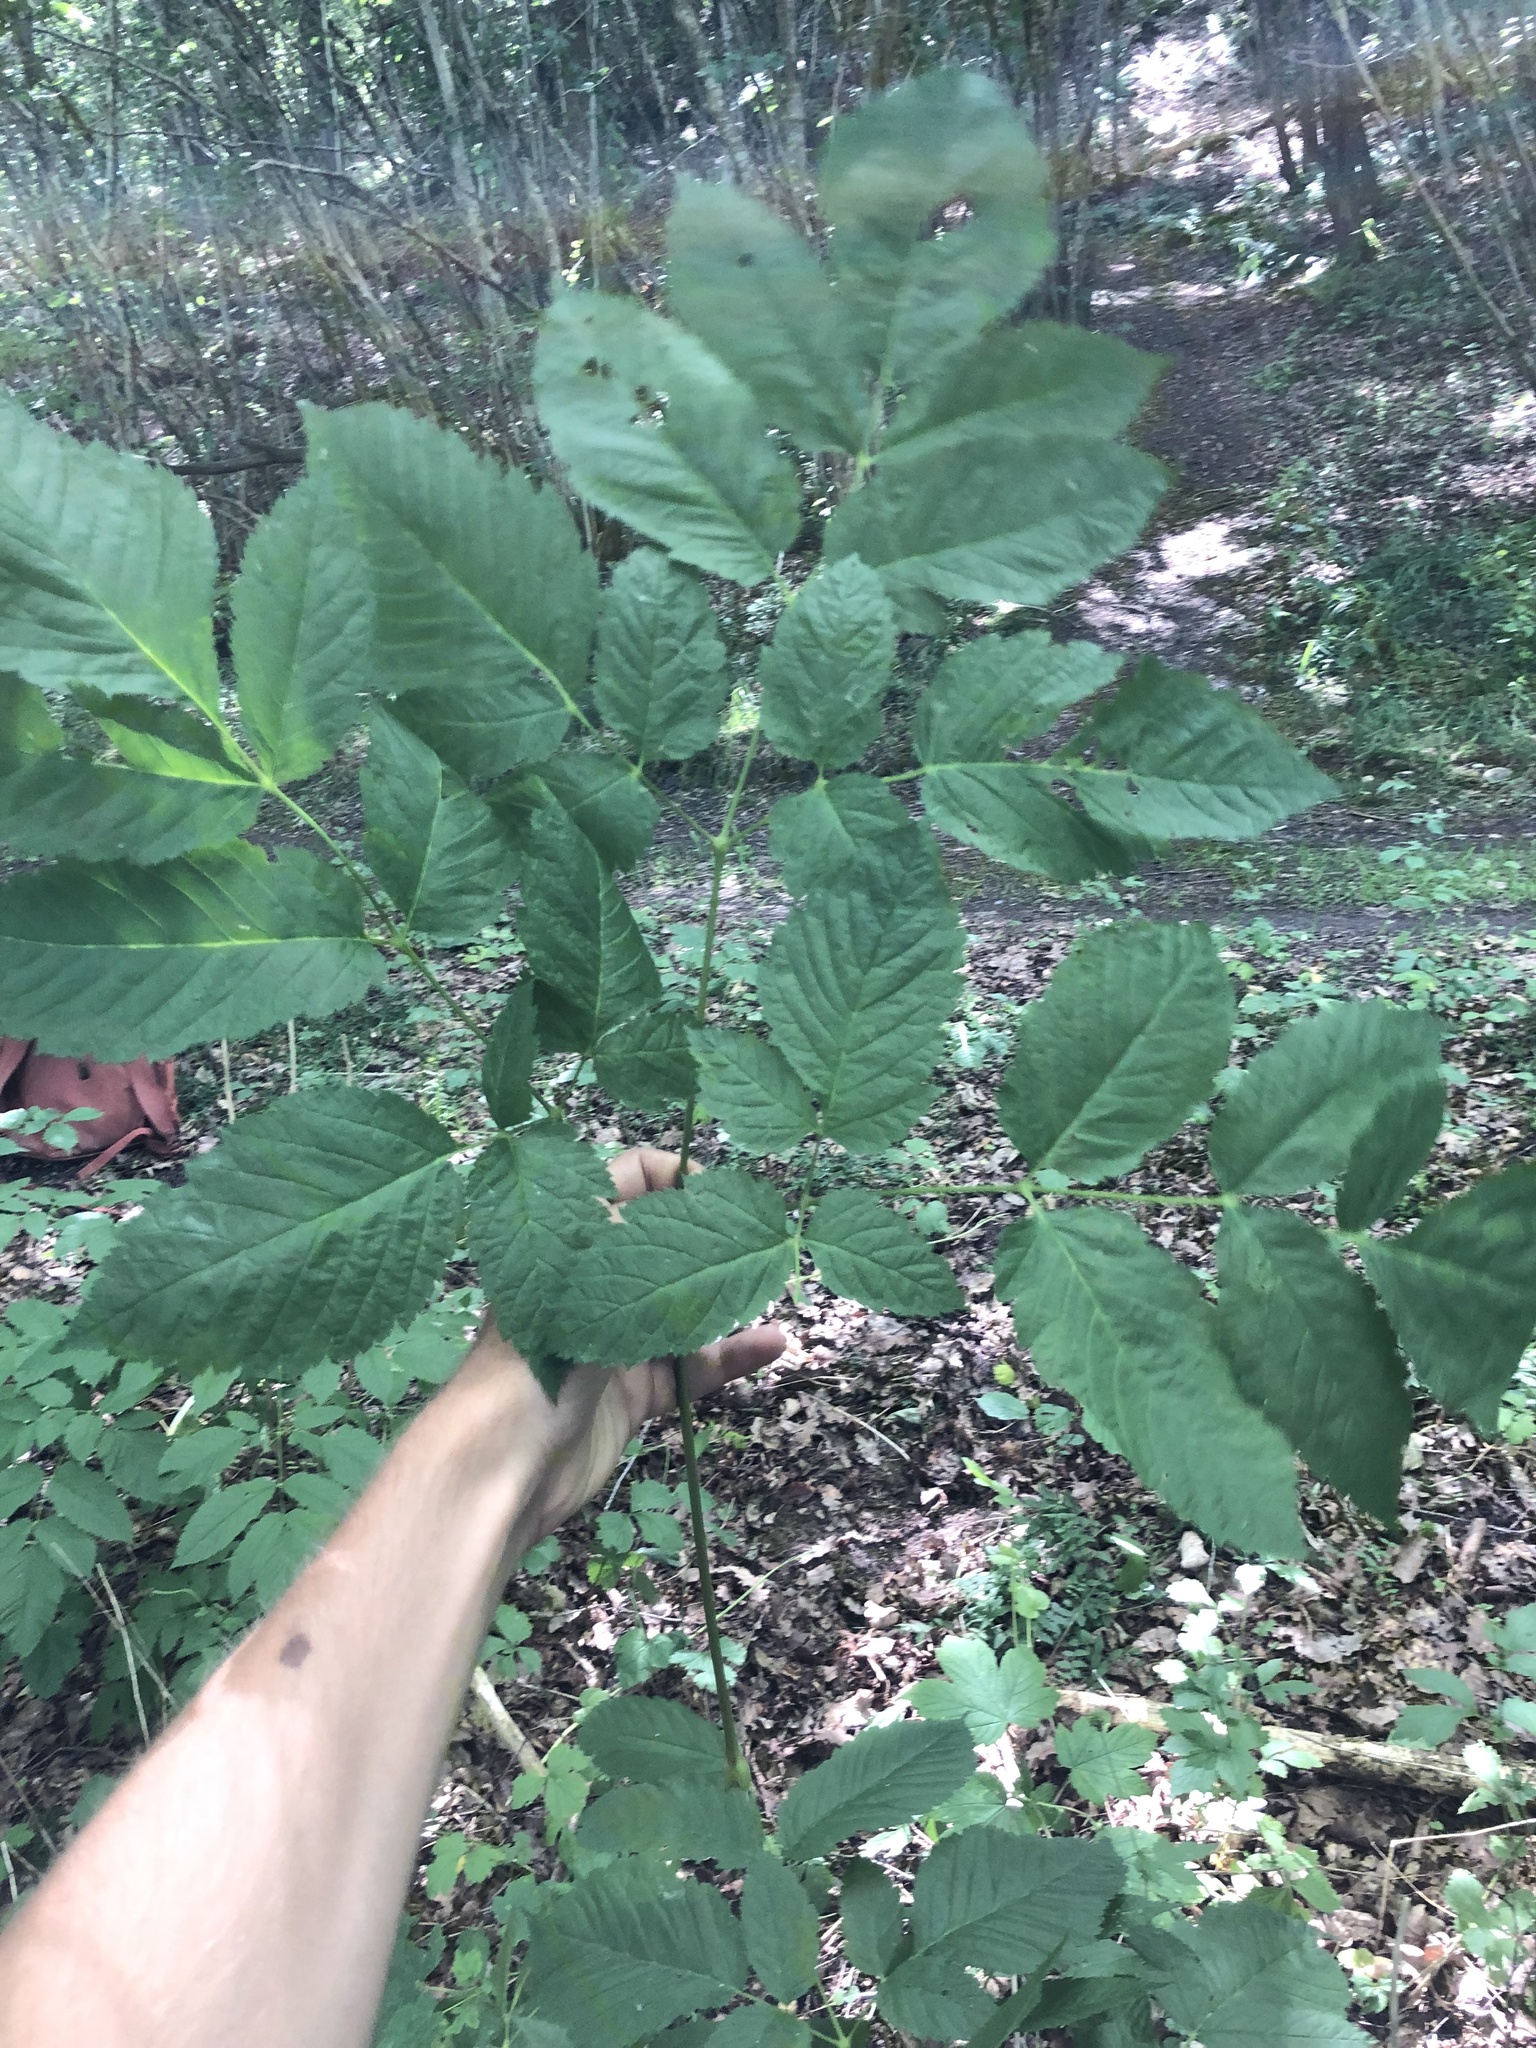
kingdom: Plantae
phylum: Tracheophyta
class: Magnoliopsida
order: Rosales
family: Rosaceae
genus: Aruncus
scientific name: Aruncus dioicus
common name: Buck's-beard
